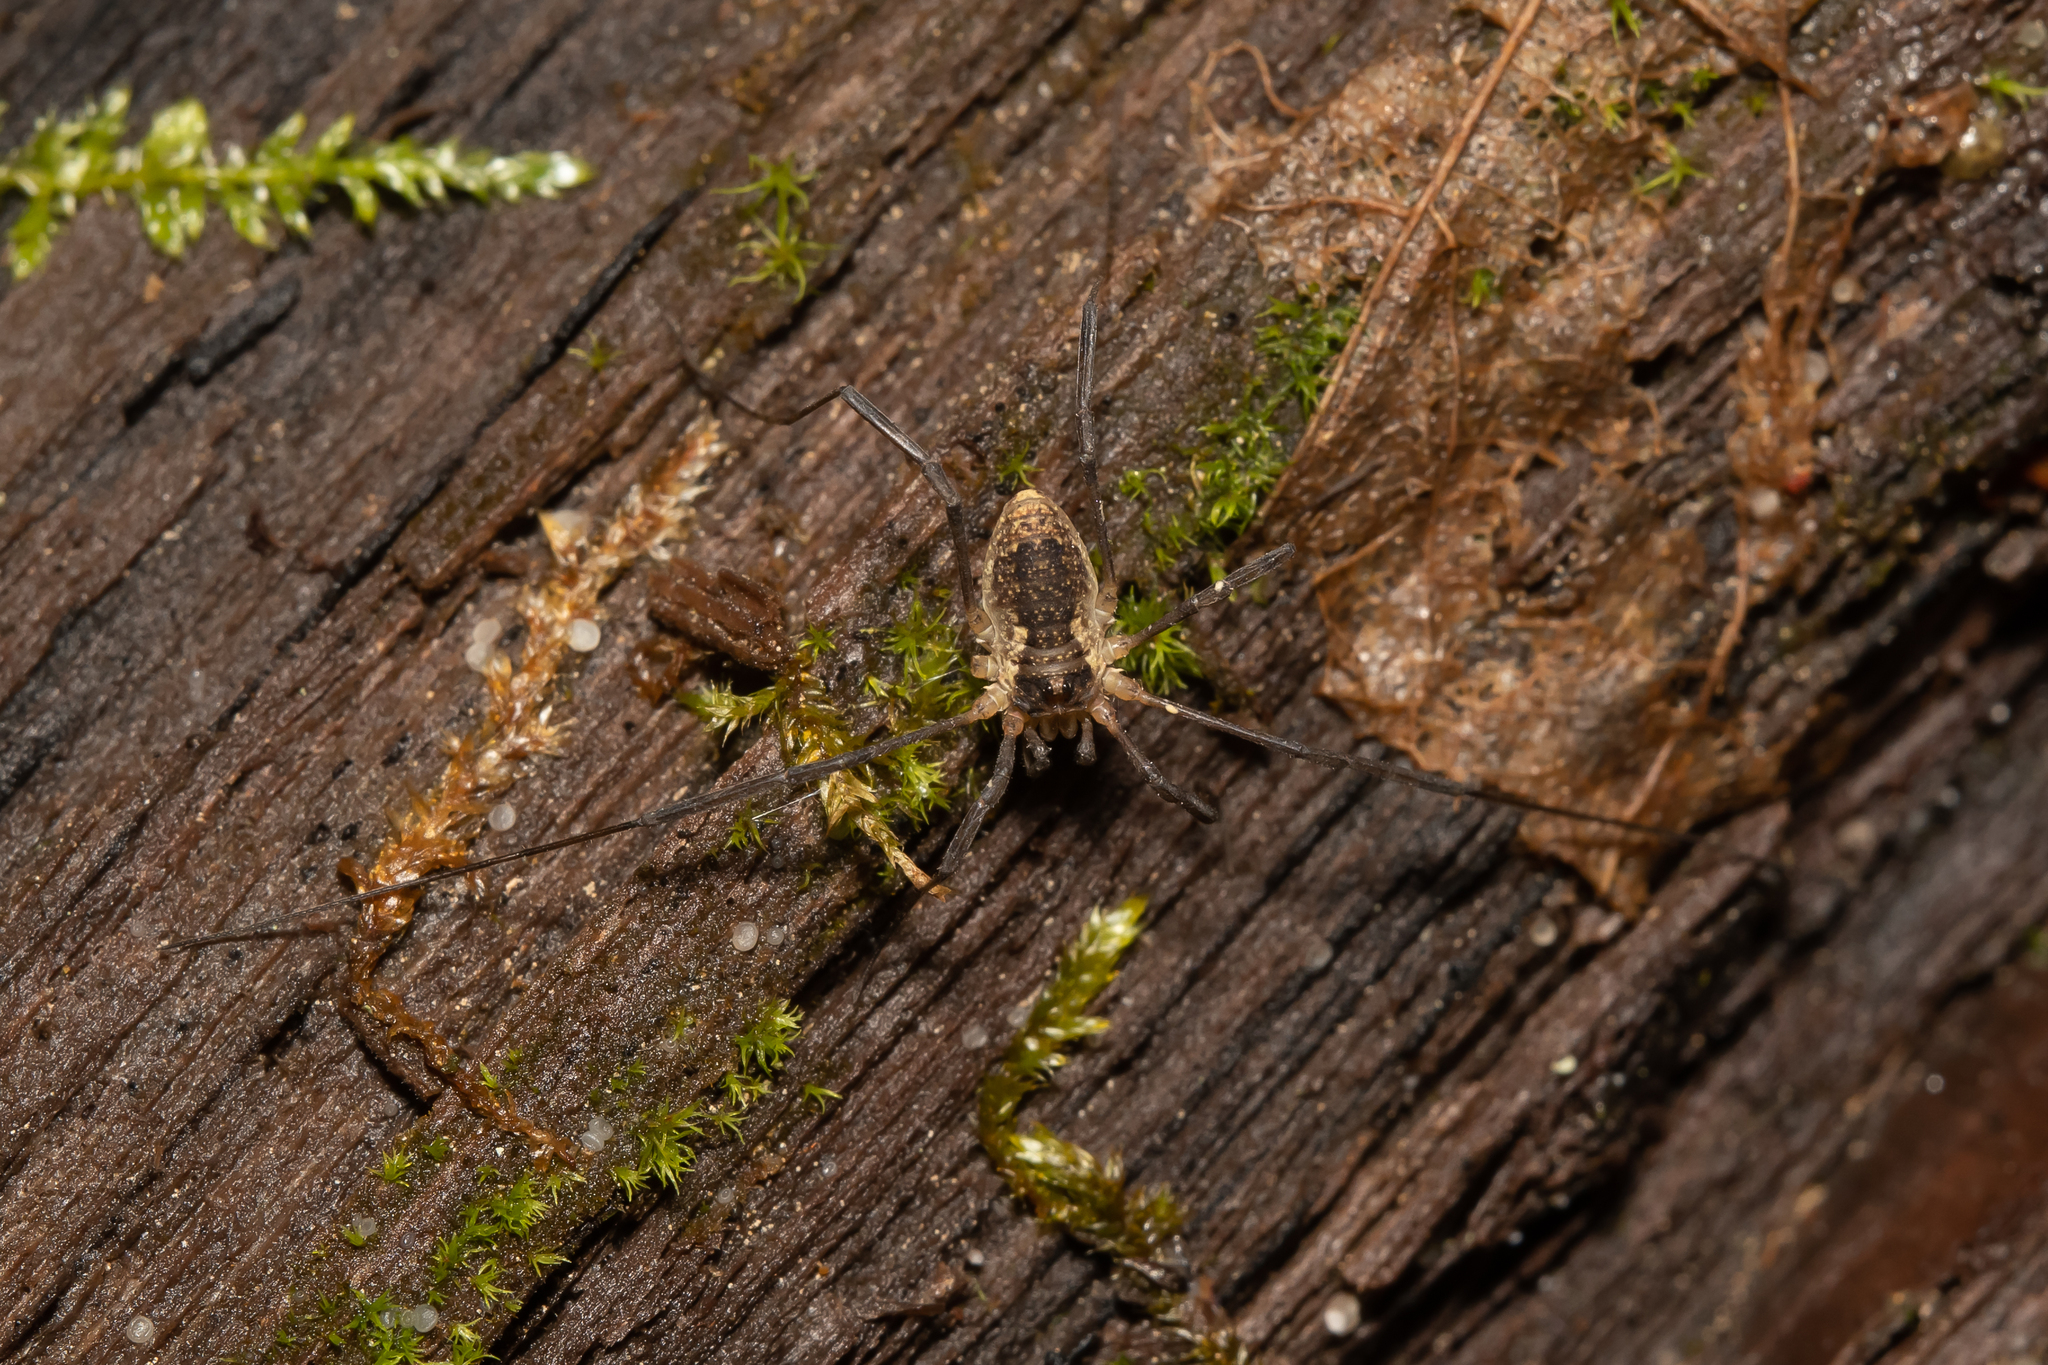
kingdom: Animalia
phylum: Arthropoda
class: Arachnida
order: Opiliones
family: Phalangiidae
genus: Oligolophus
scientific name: Oligolophus tridens
